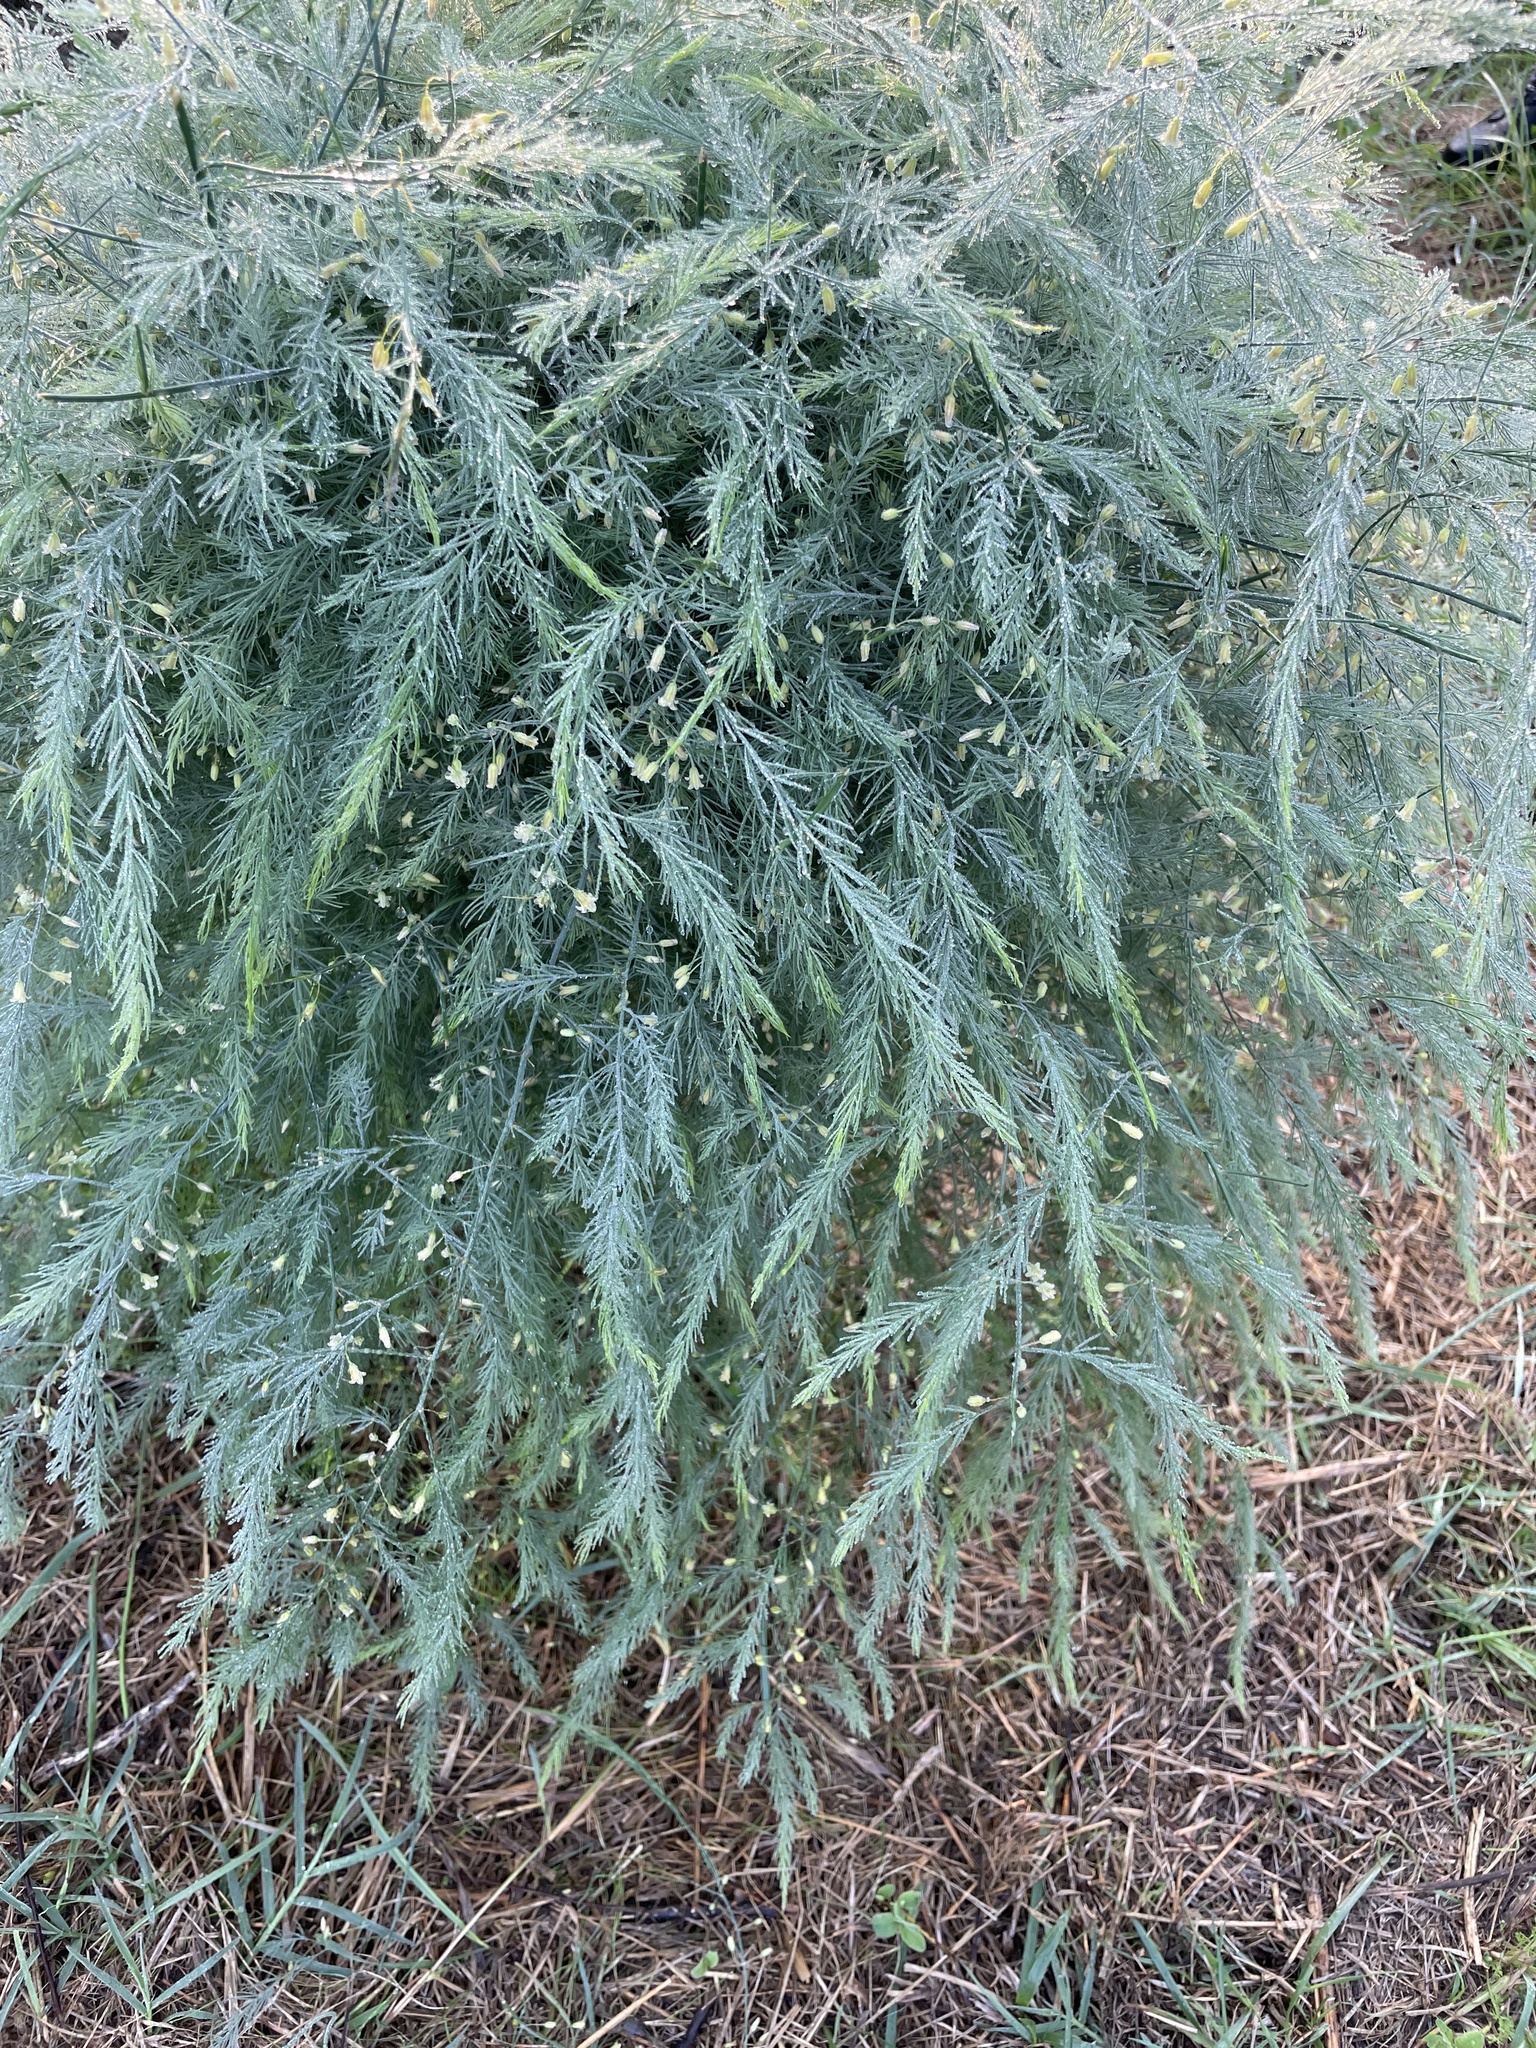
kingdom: Plantae
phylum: Tracheophyta
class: Liliopsida
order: Asparagales
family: Asparagaceae
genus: Asparagus
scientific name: Asparagus officinalis
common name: Garden asparagus
